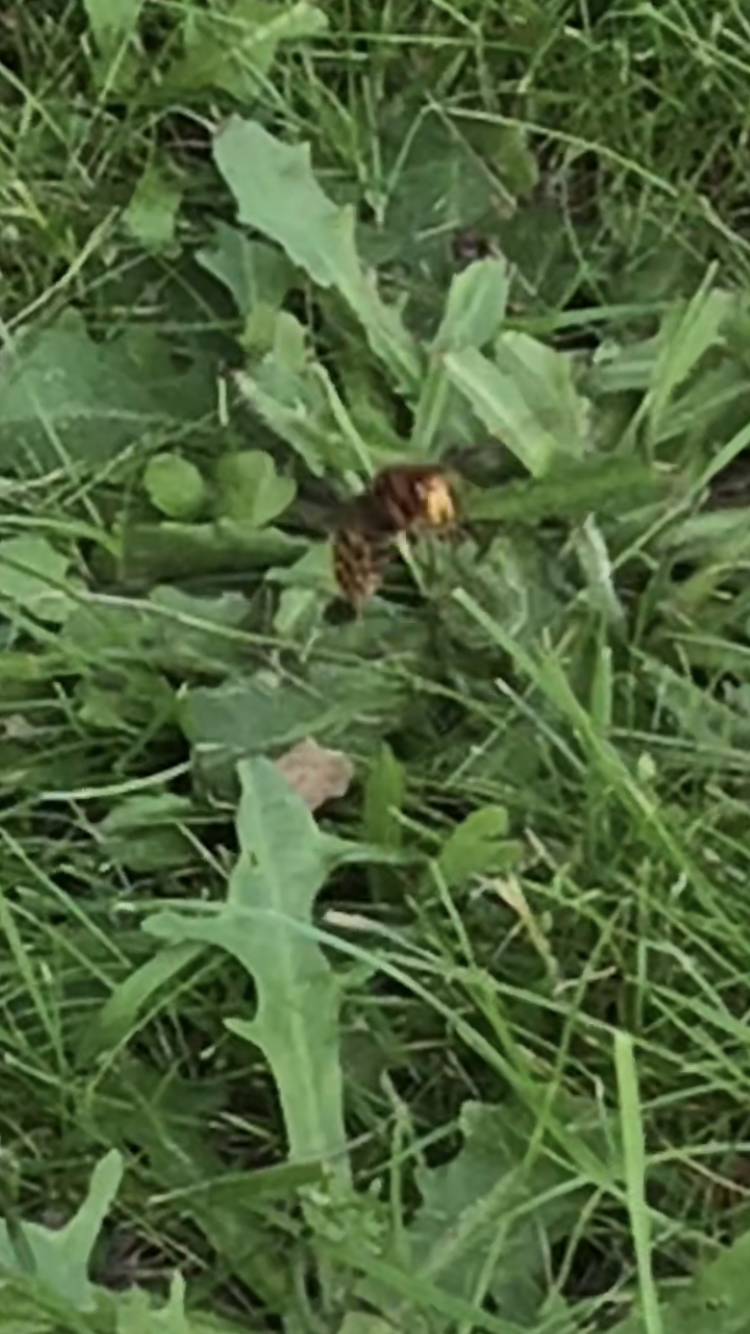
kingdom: Animalia
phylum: Arthropoda
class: Insecta
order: Hymenoptera
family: Vespidae
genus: Vespa
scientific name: Vespa crabro
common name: Hornet
